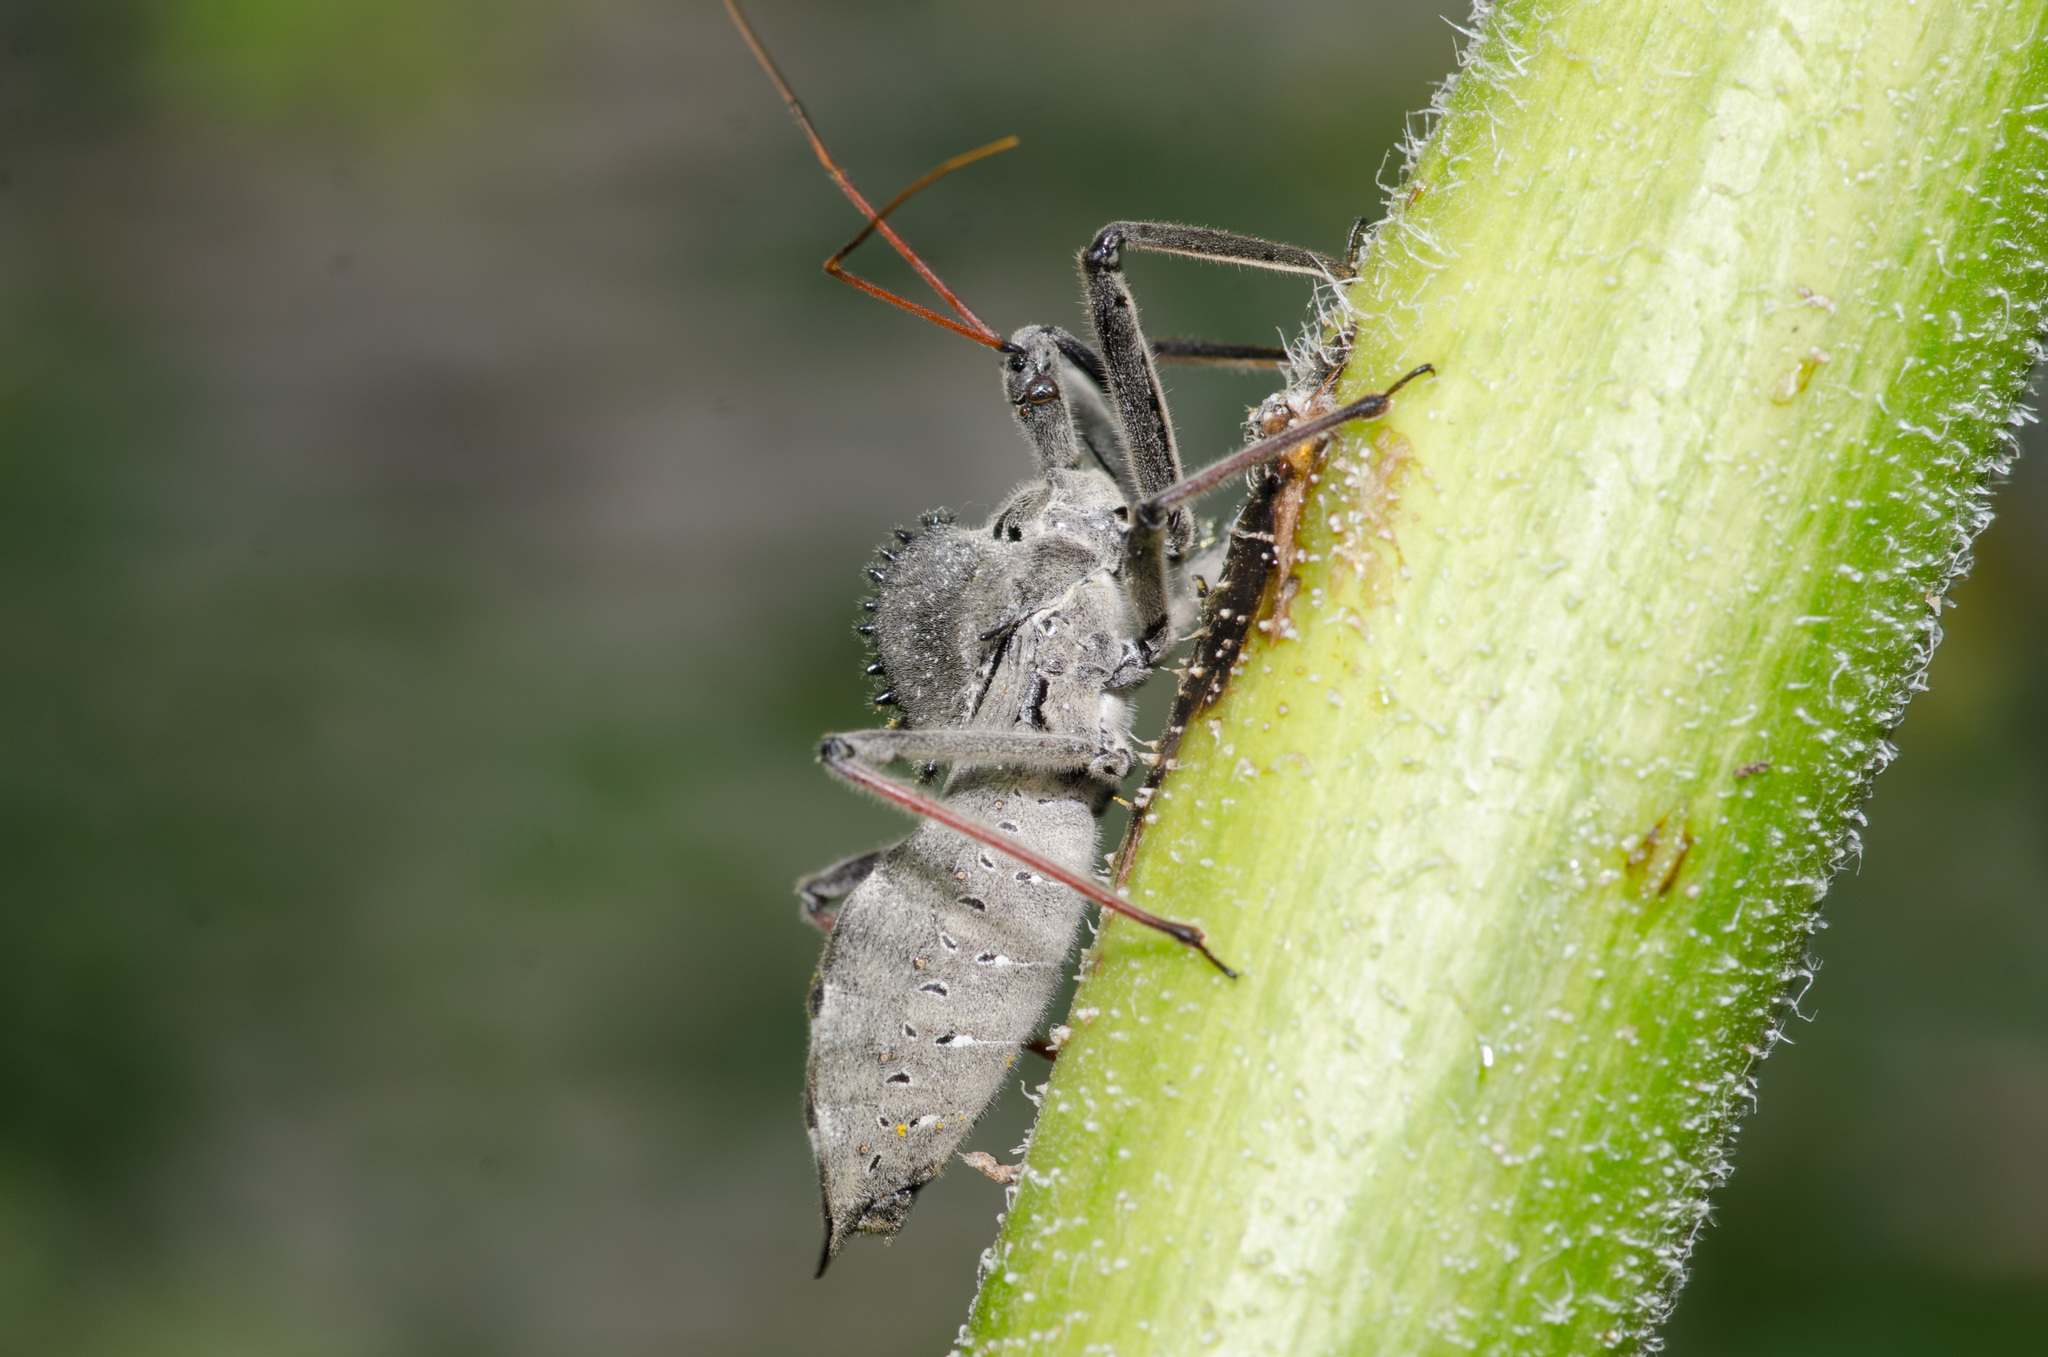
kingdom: Animalia
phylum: Arthropoda
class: Insecta
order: Hemiptera
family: Reduviidae
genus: Arilus
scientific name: Arilus cristatus
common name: North american wheel bug
